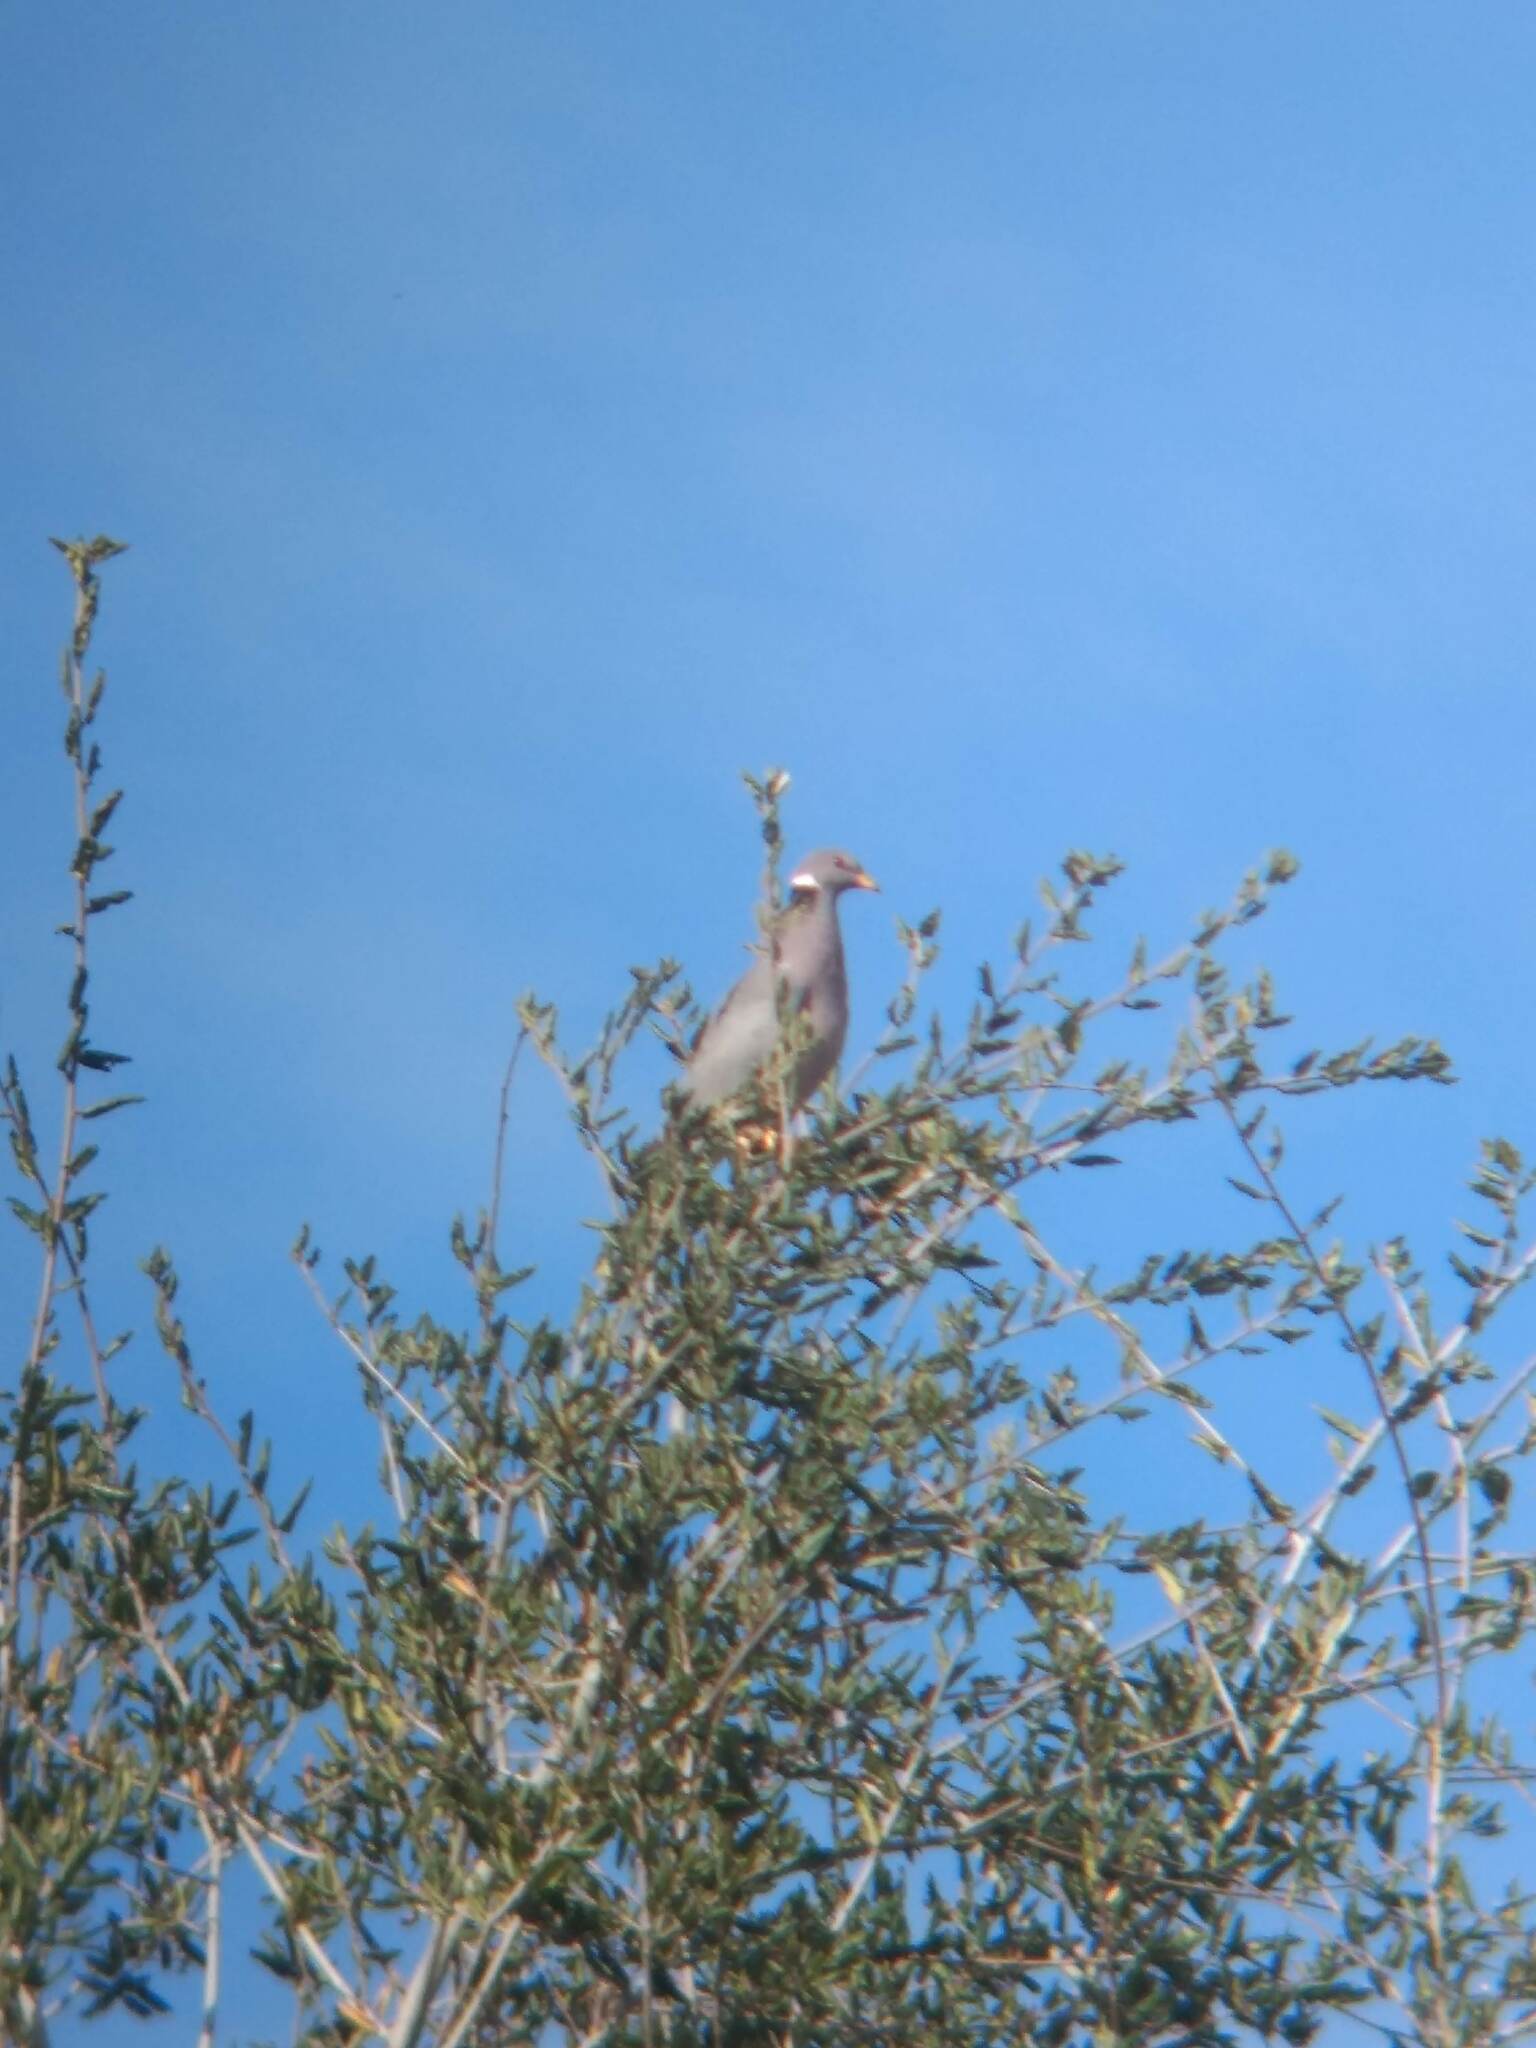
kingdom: Animalia
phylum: Chordata
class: Aves
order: Columbiformes
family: Columbidae
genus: Patagioenas
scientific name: Patagioenas fasciata
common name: Band-tailed pigeon
